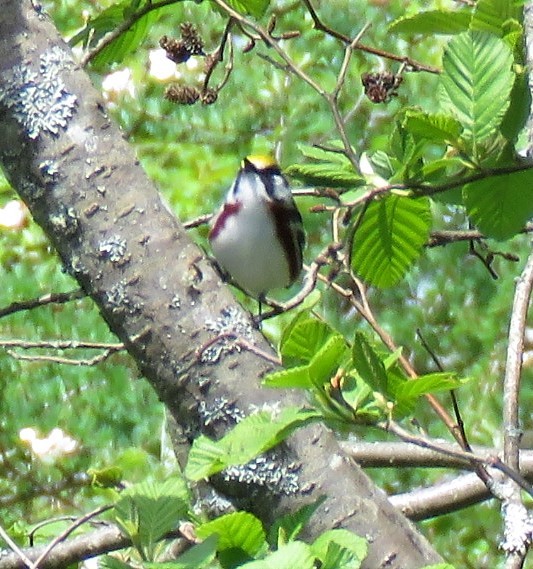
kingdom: Animalia
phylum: Chordata
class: Aves
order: Passeriformes
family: Parulidae
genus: Setophaga
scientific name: Setophaga pensylvanica
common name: Chestnut-sided warbler
